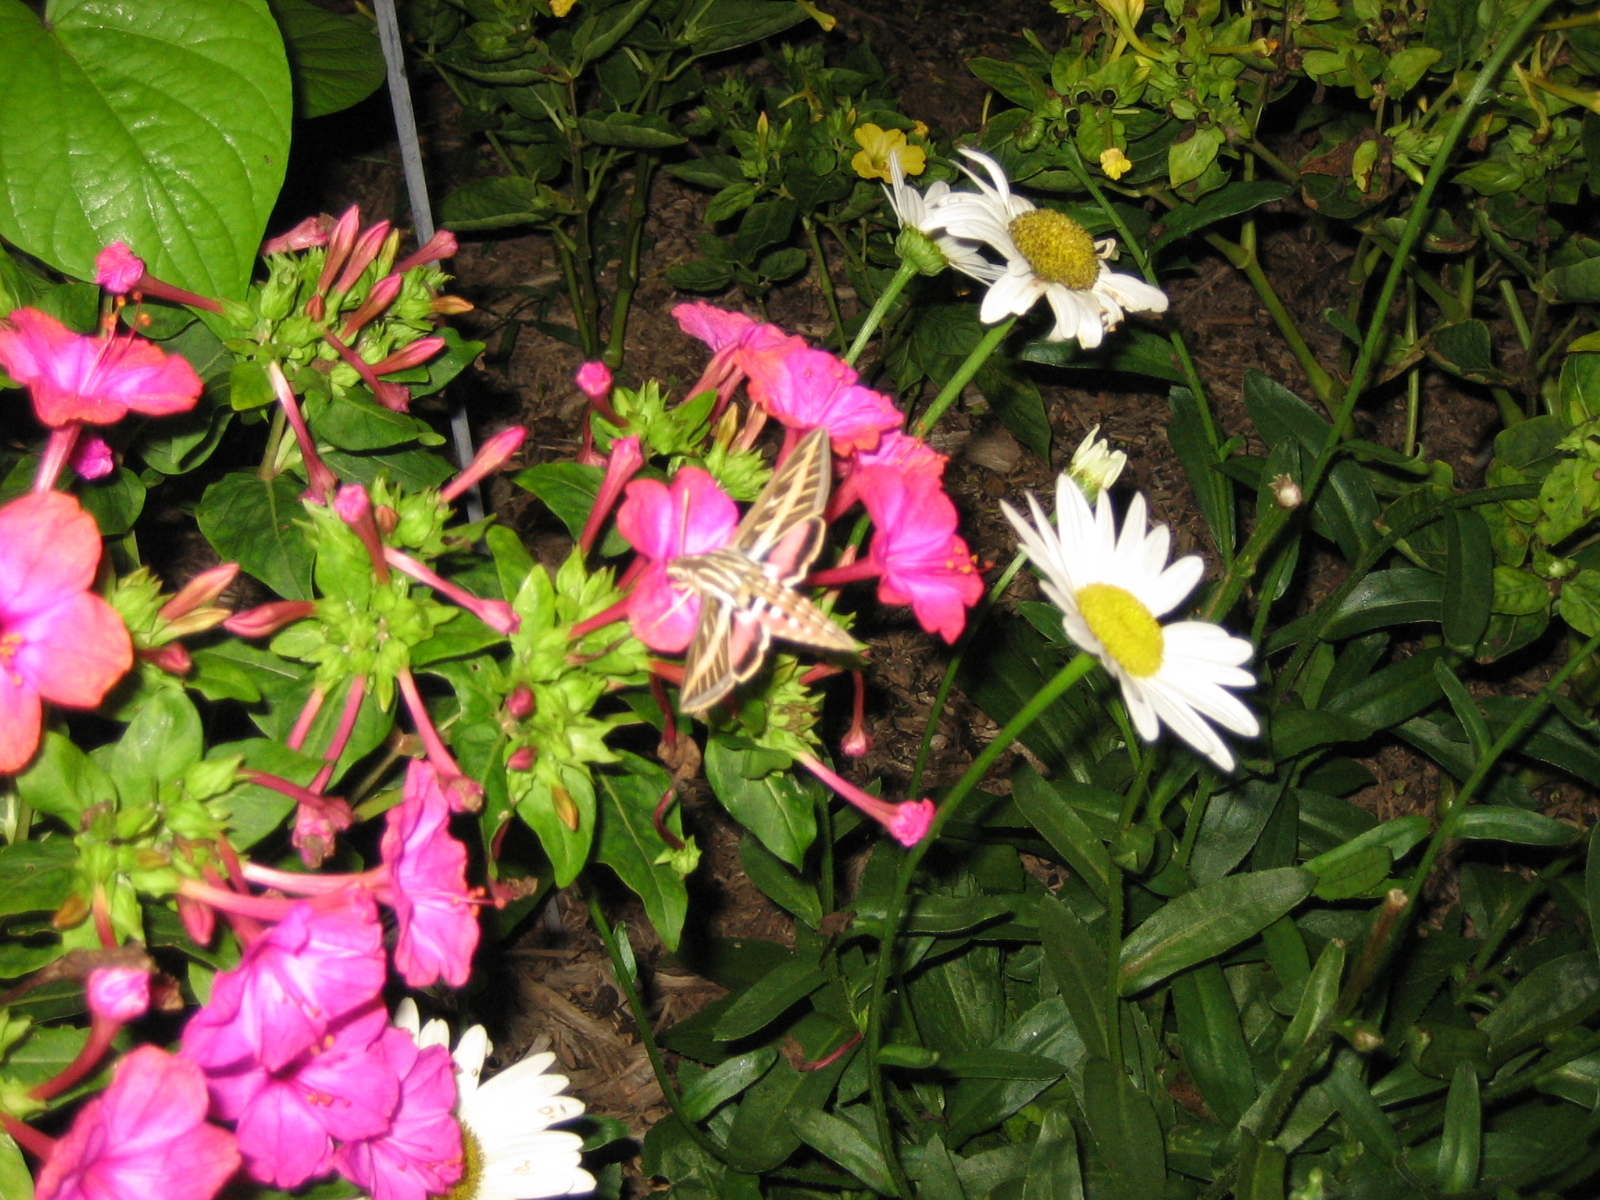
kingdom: Animalia
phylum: Arthropoda
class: Insecta
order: Lepidoptera
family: Sphingidae
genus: Hyles
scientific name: Hyles lineata
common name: White-lined sphinx
